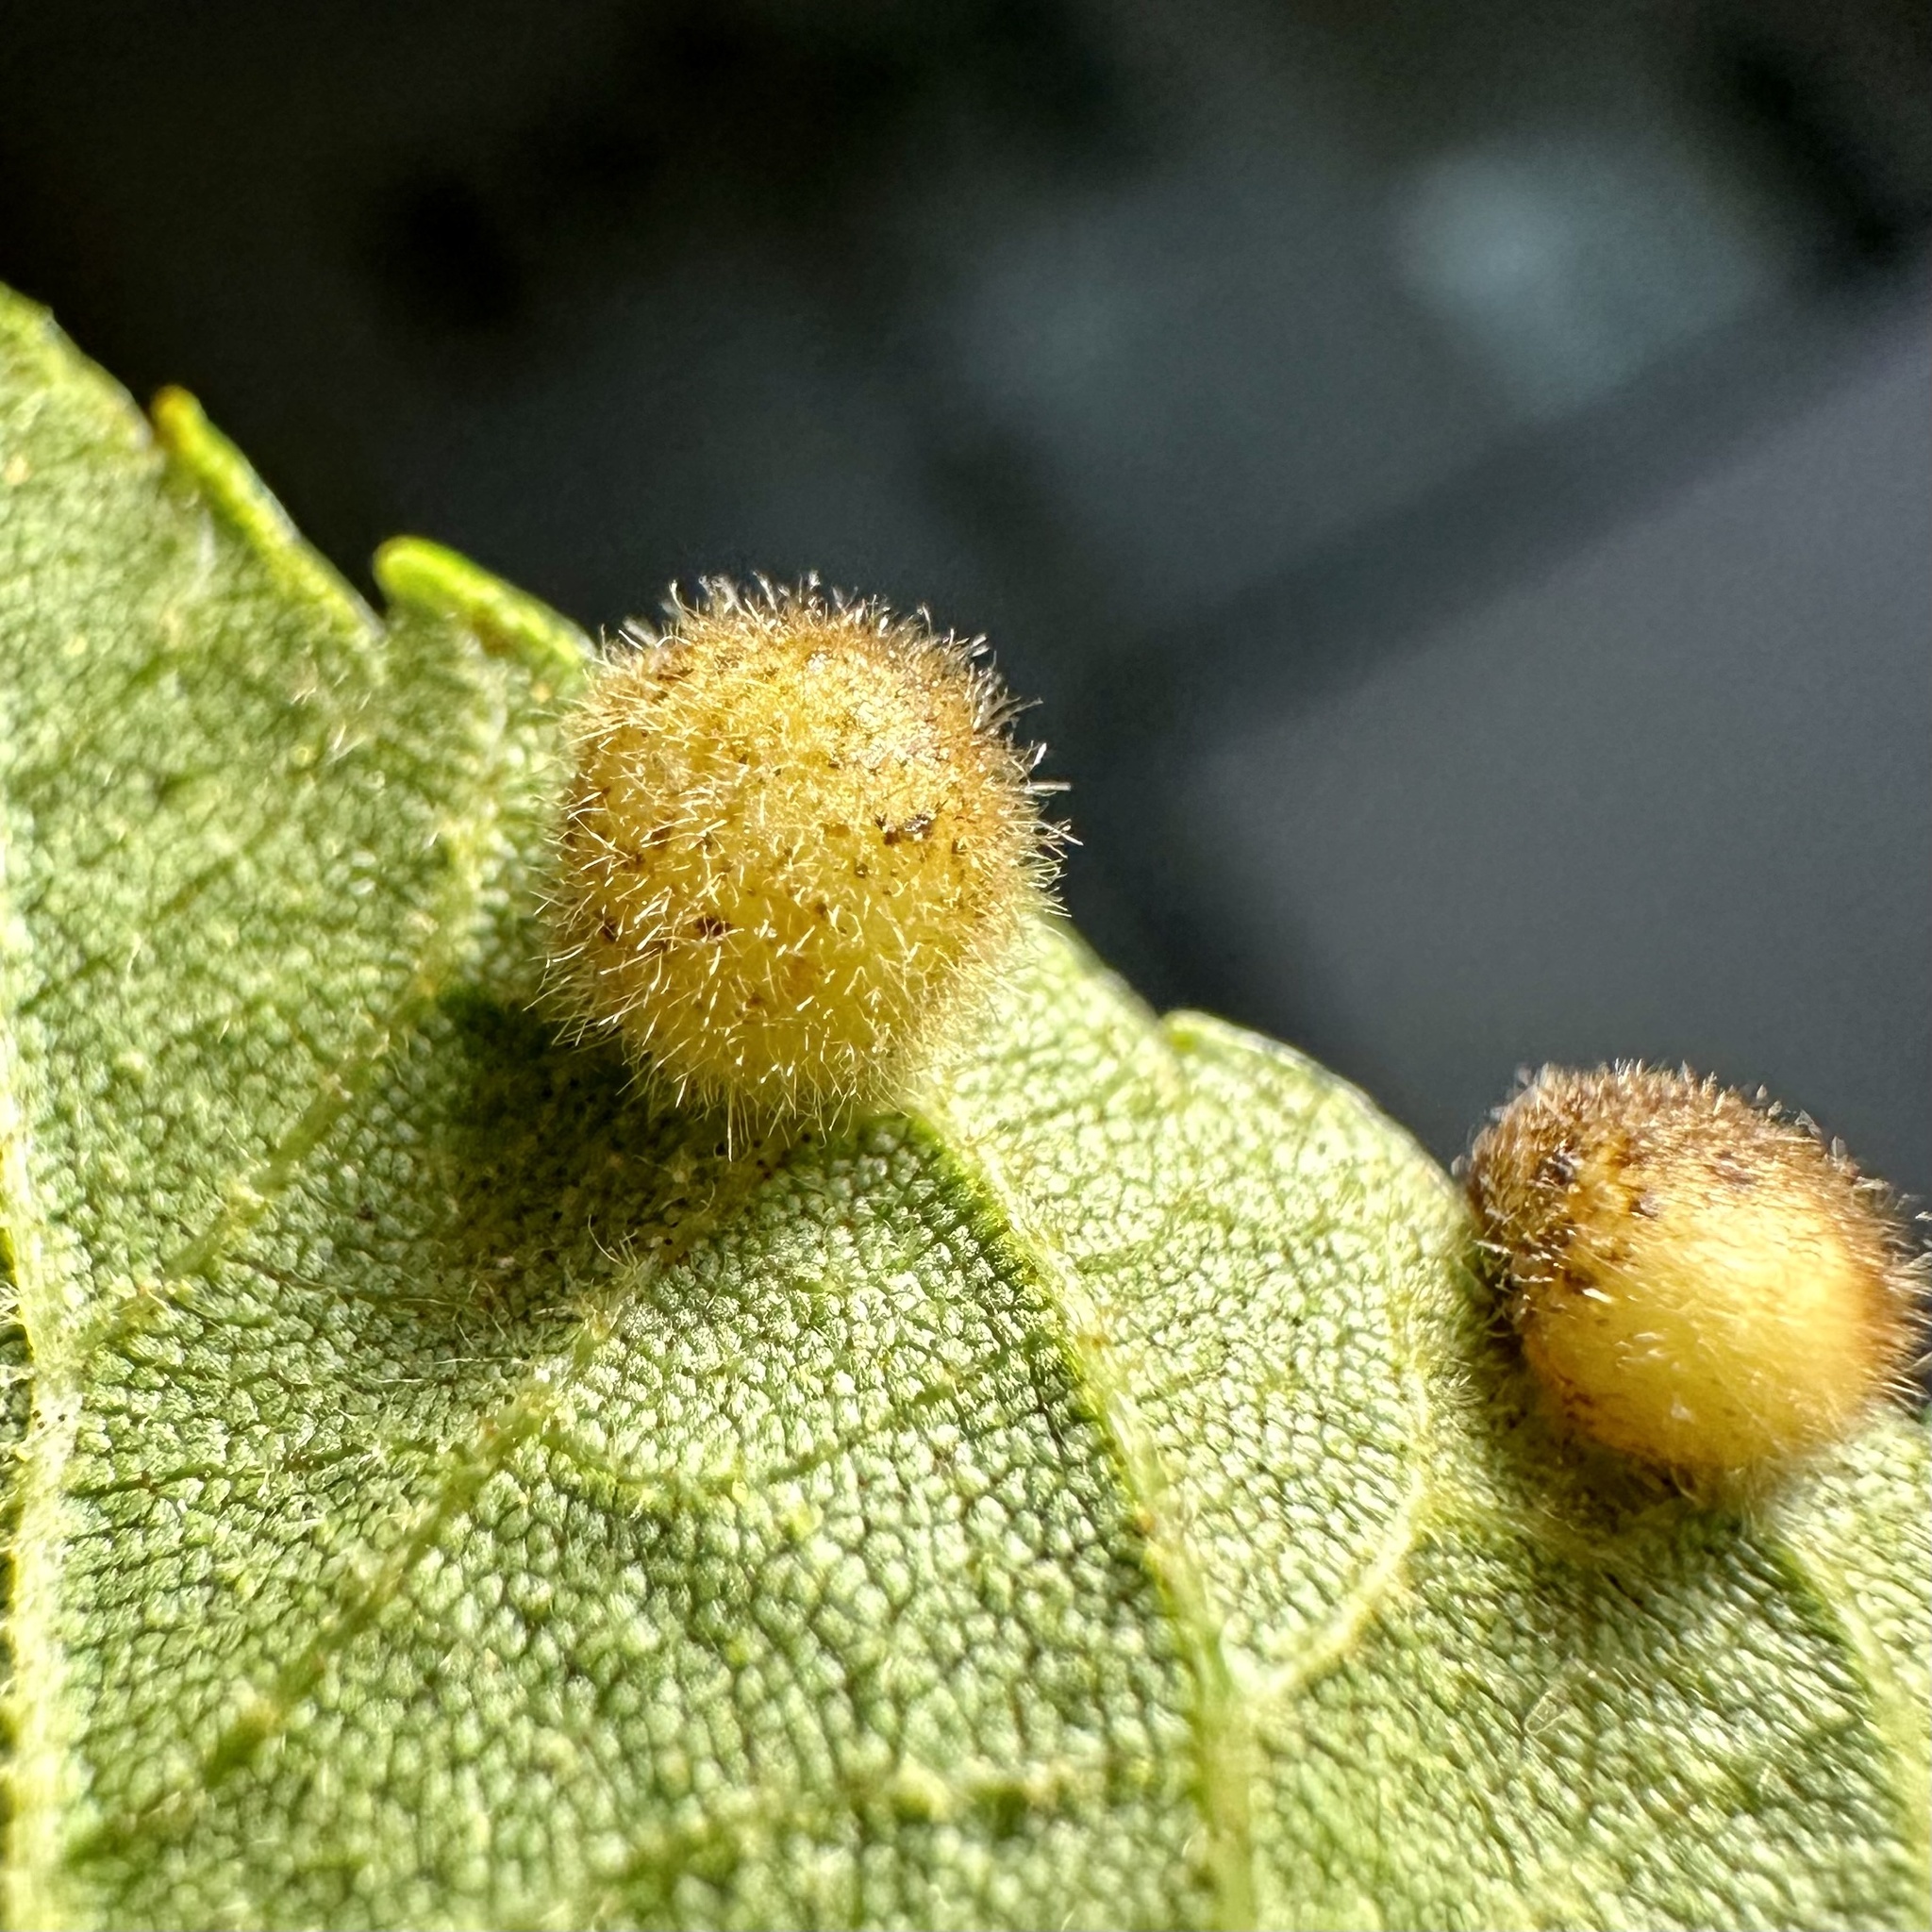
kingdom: Animalia
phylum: Arthropoda
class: Insecta
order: Diptera
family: Cecidomyiidae
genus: Caryomyia
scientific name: Caryomyia thompsoni
